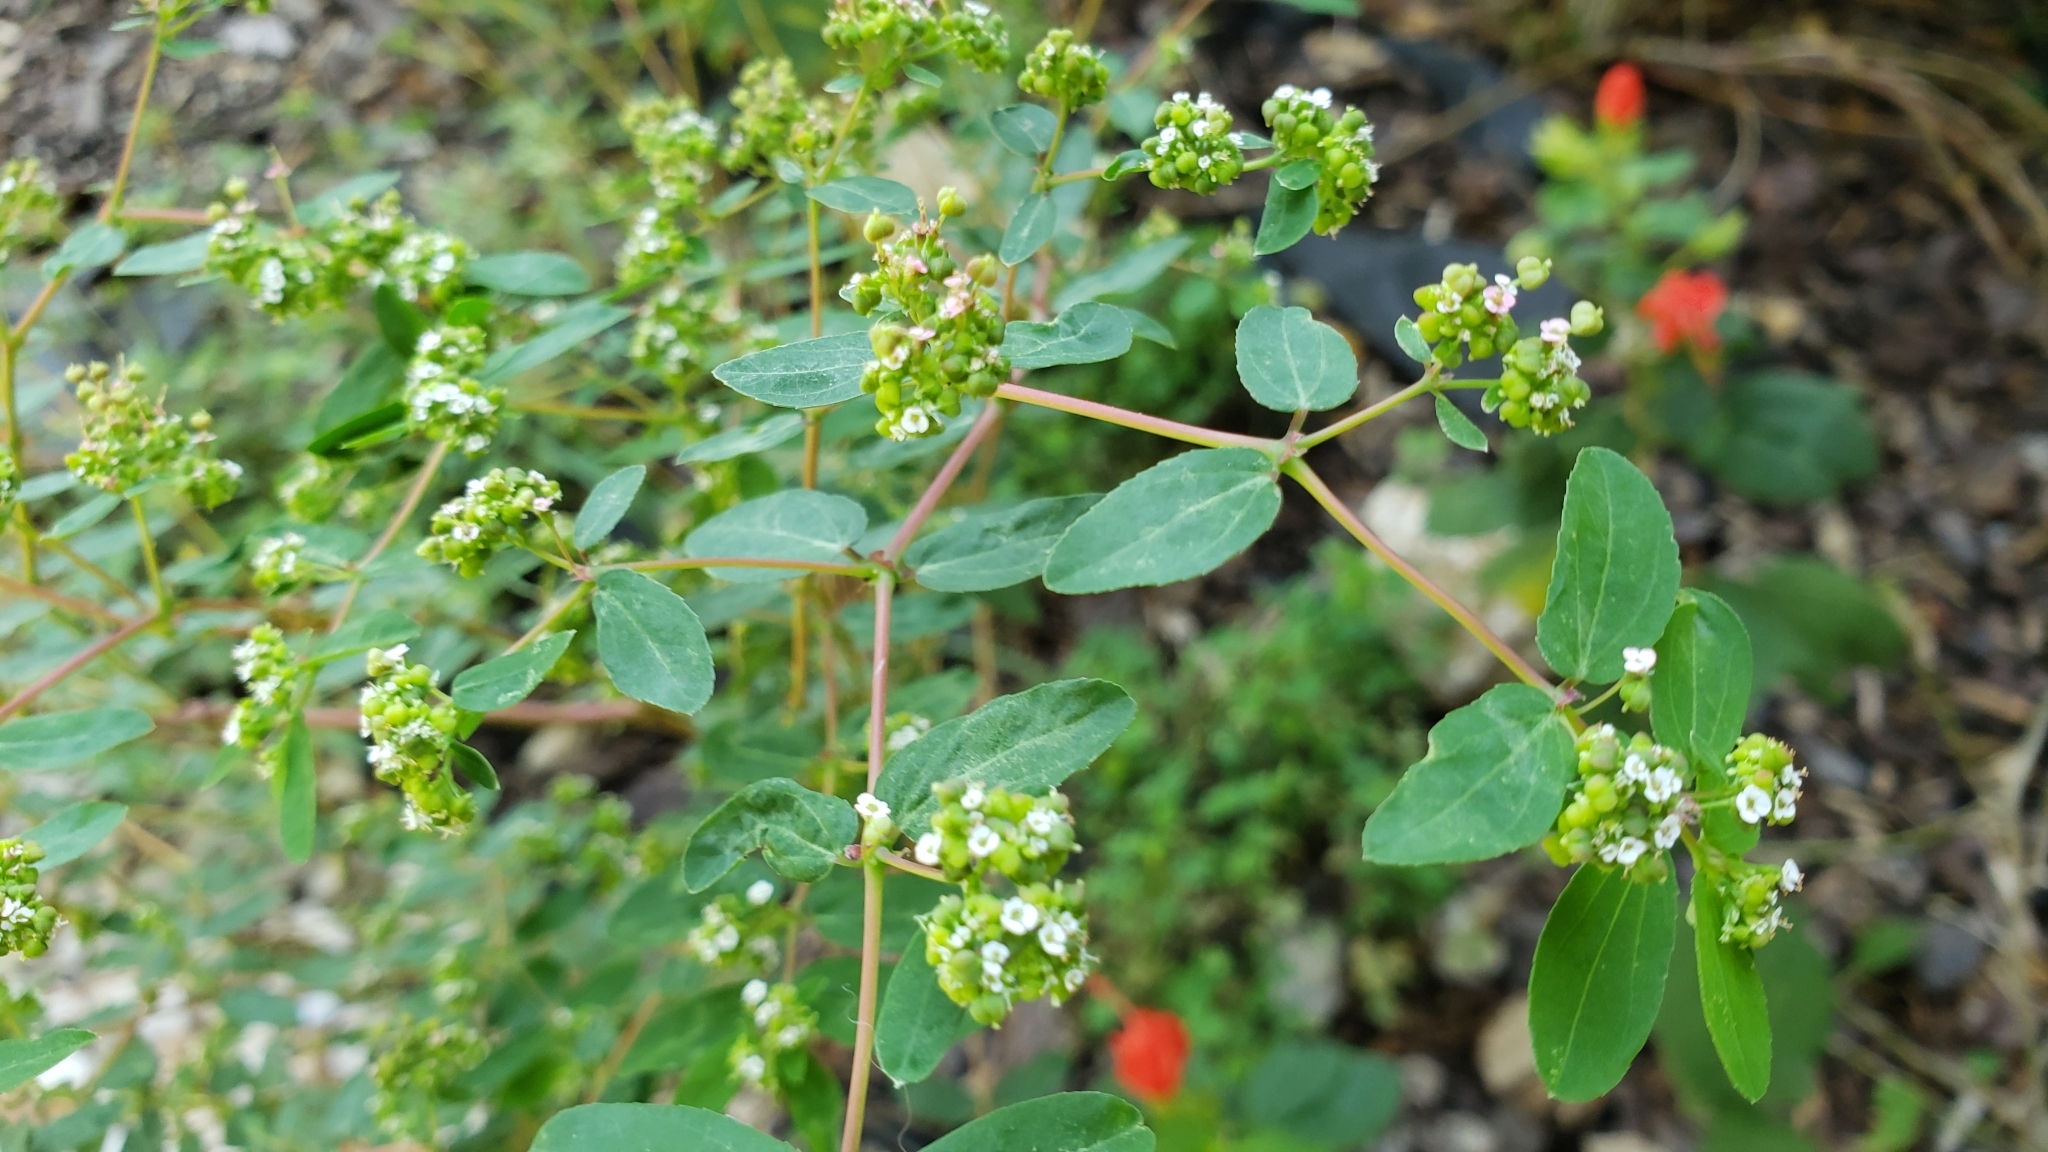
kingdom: Plantae
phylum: Tracheophyta
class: Magnoliopsida
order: Malpighiales
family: Euphorbiaceae
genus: Euphorbia
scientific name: Euphorbia hypericifolia
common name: Graceful sandmat
